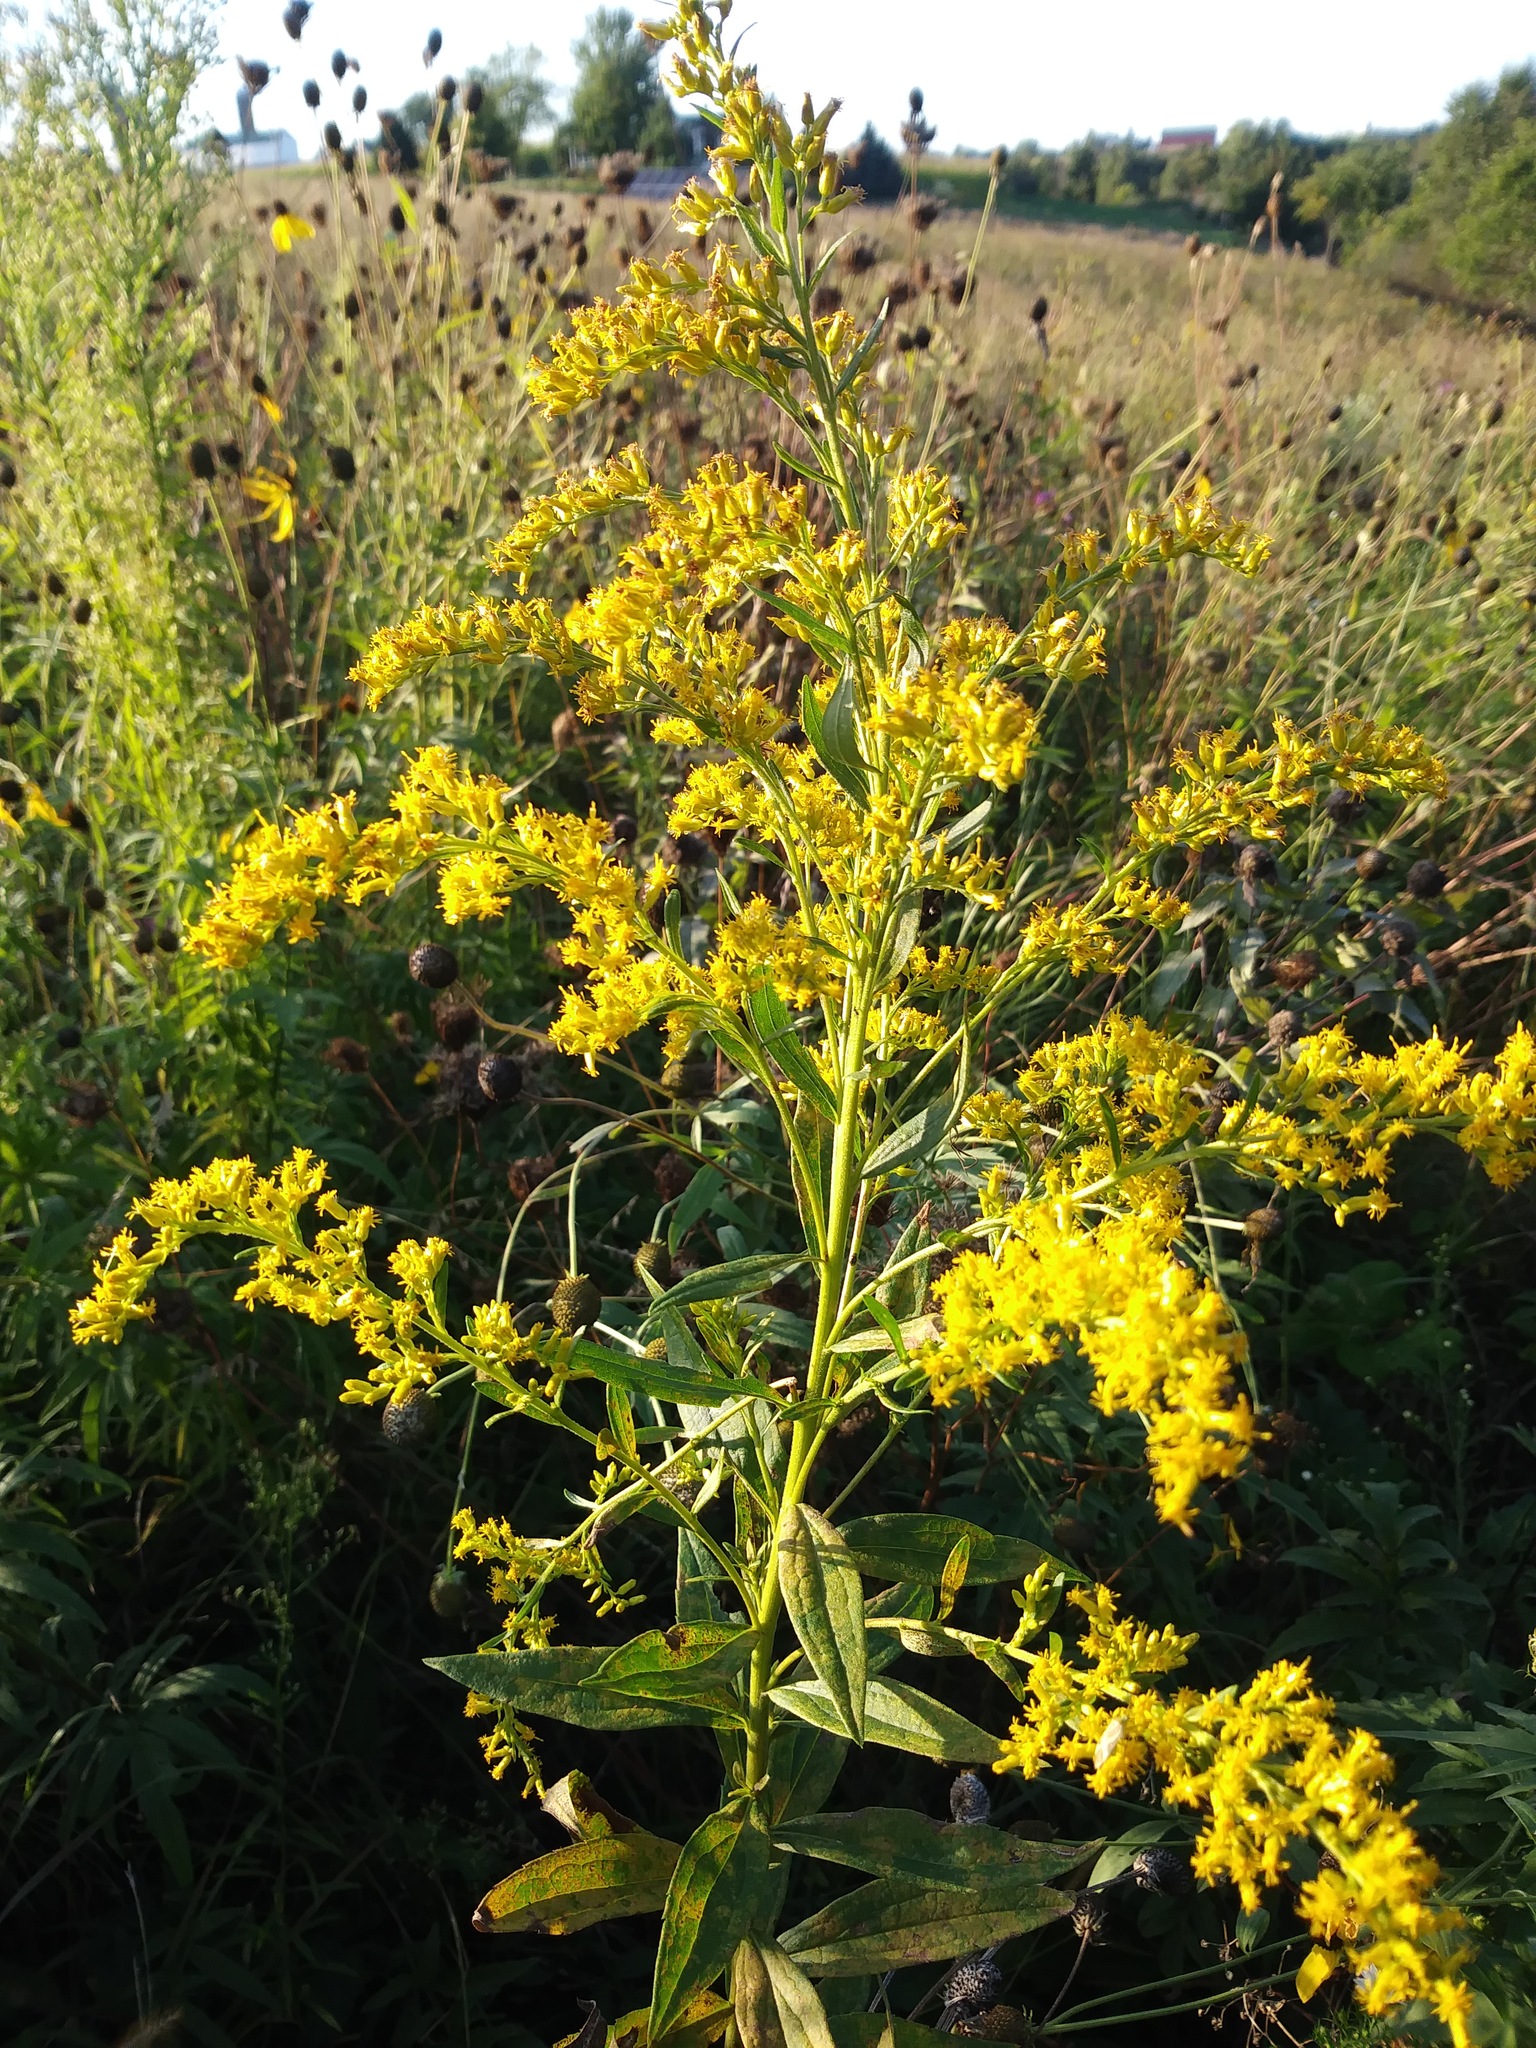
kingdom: Plantae
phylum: Tracheophyta
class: Magnoliopsida
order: Asterales
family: Asteraceae
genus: Solidago
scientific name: Solidago canadensis
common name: Canada goldenrod
